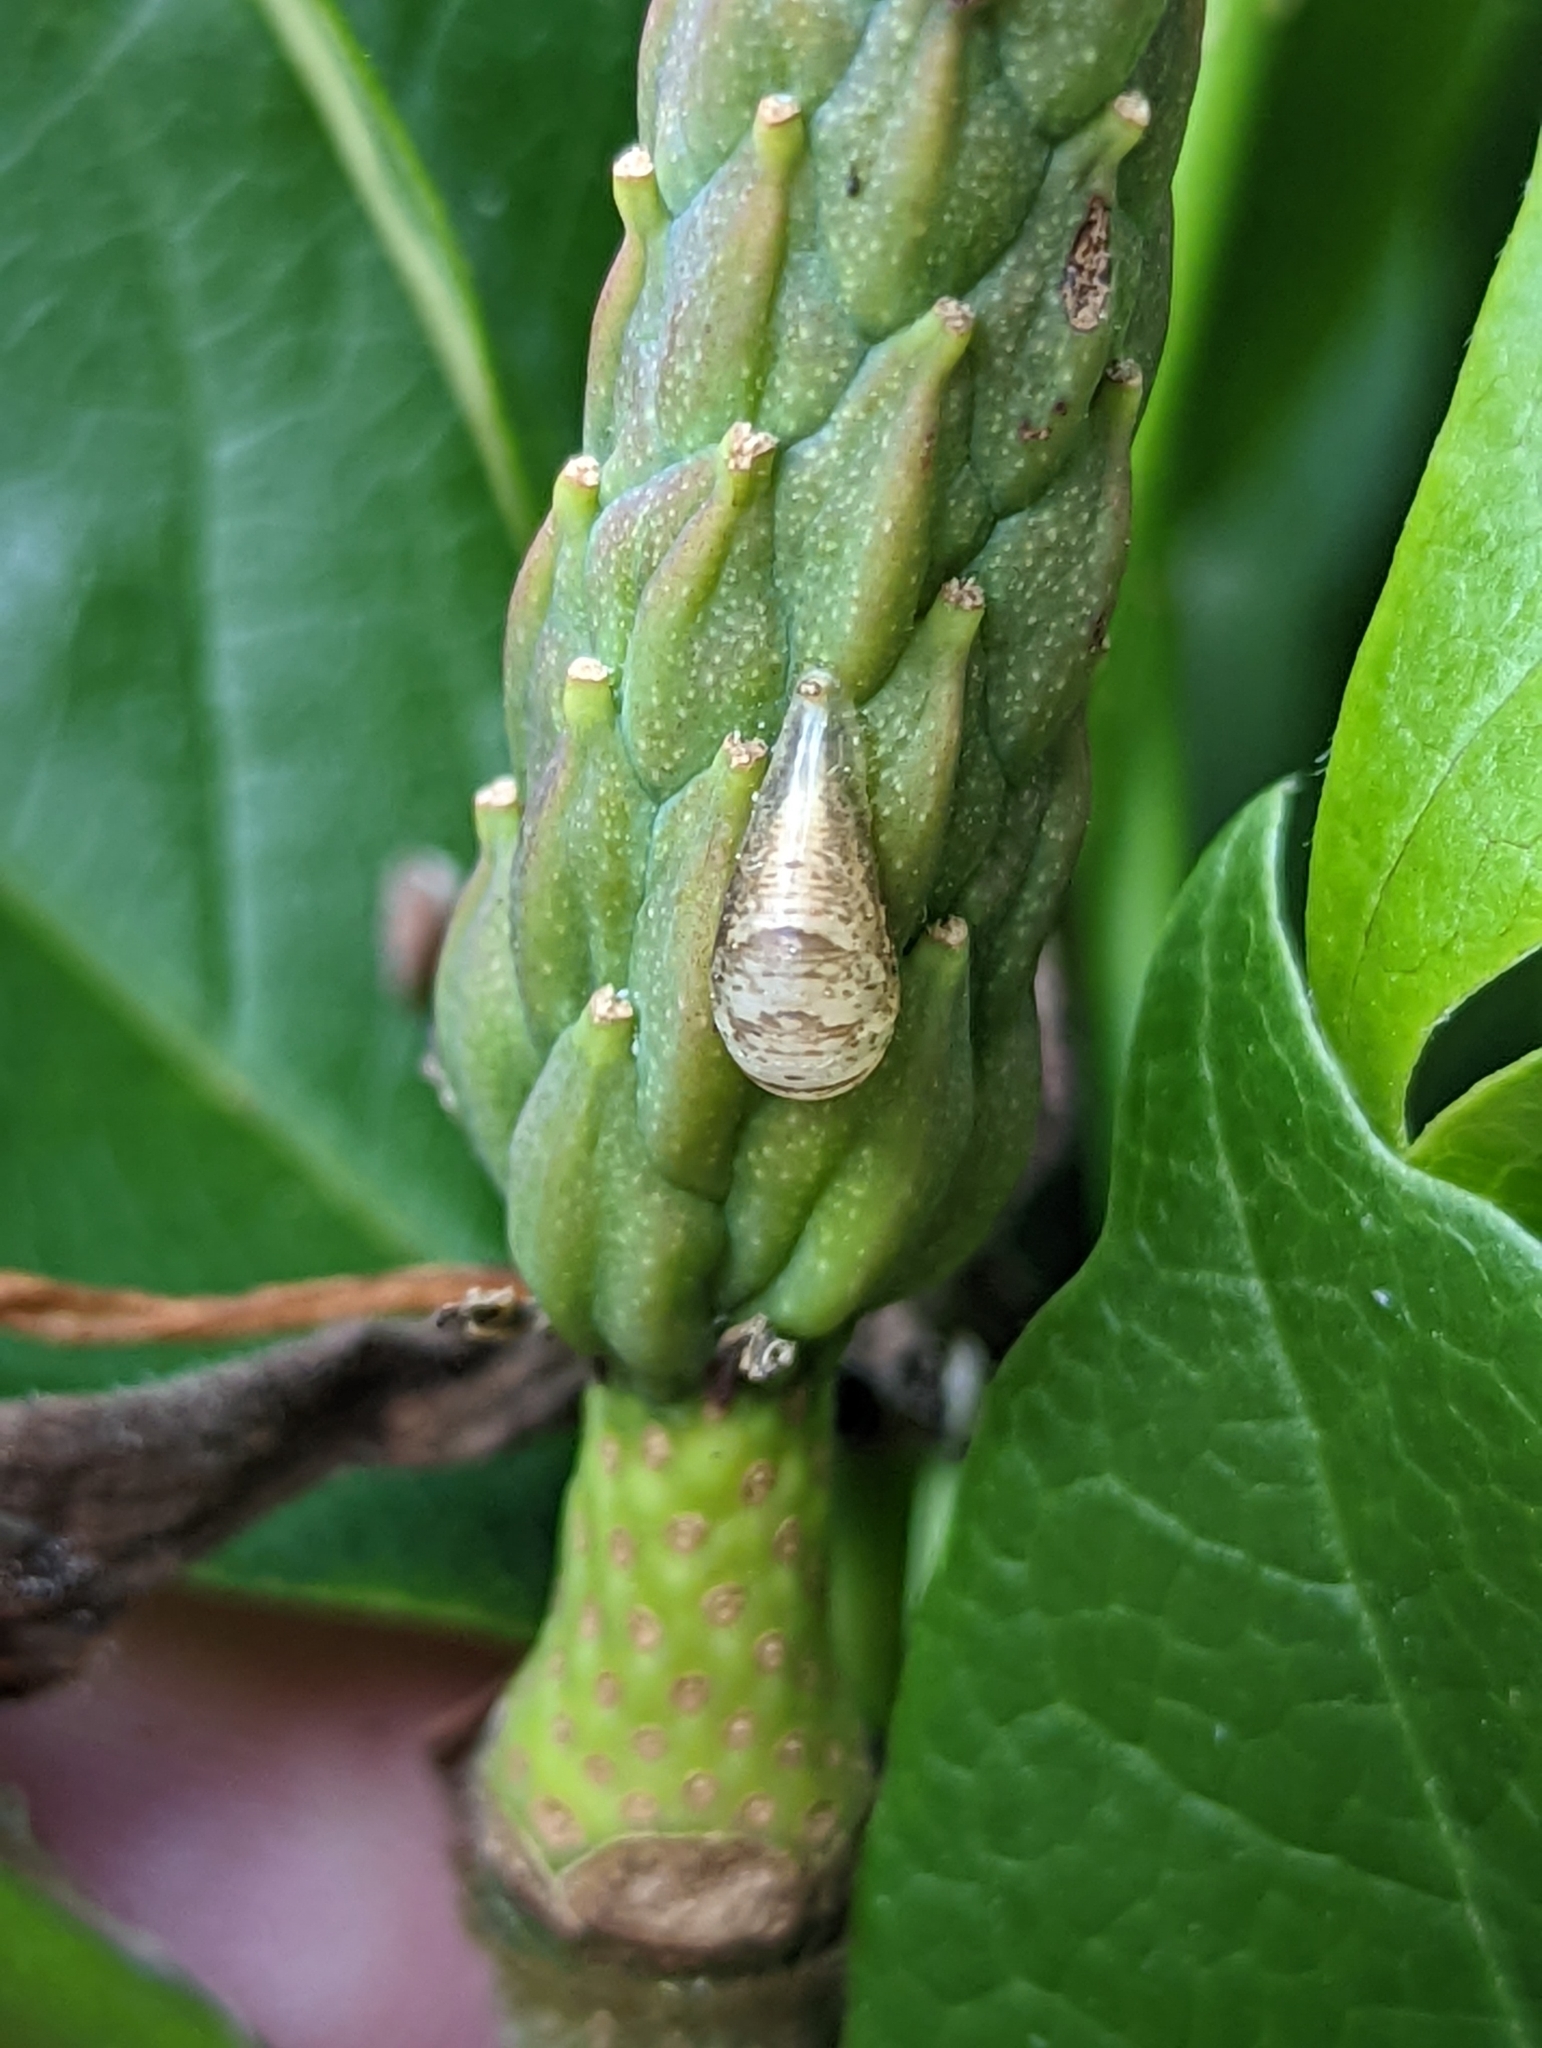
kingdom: Animalia
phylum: Arthropoda
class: Insecta
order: Diptera
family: Syrphidae
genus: Episyrphus
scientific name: Episyrphus balteatus
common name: Marmalade hoverfly
